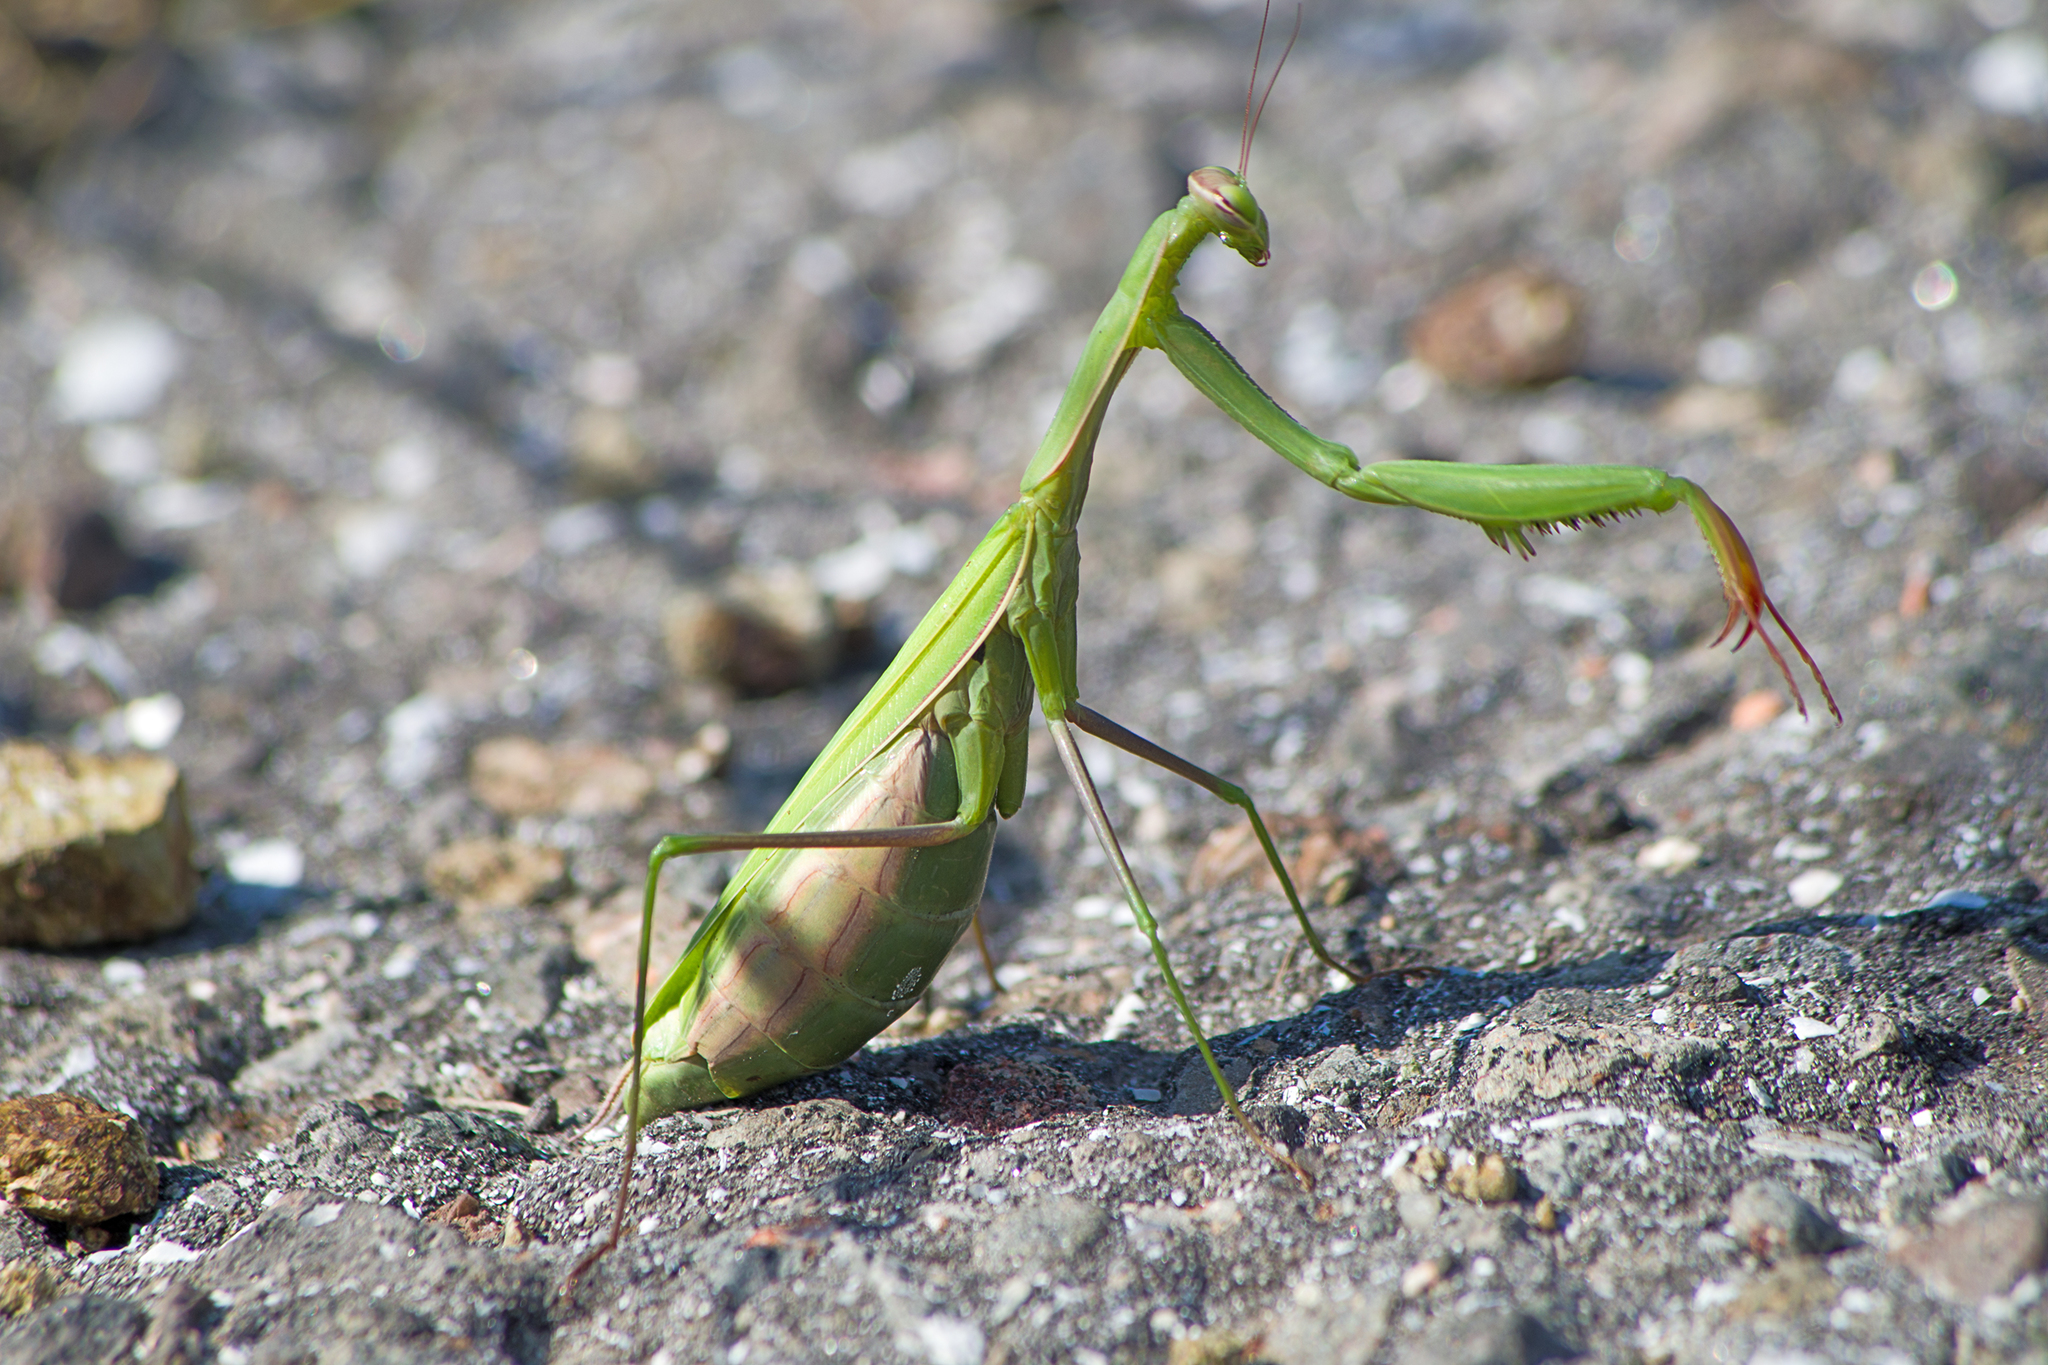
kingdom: Animalia
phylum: Arthropoda
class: Insecta
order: Mantodea
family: Mantidae
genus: Mantis
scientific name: Mantis religiosa
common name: Praying mantis
